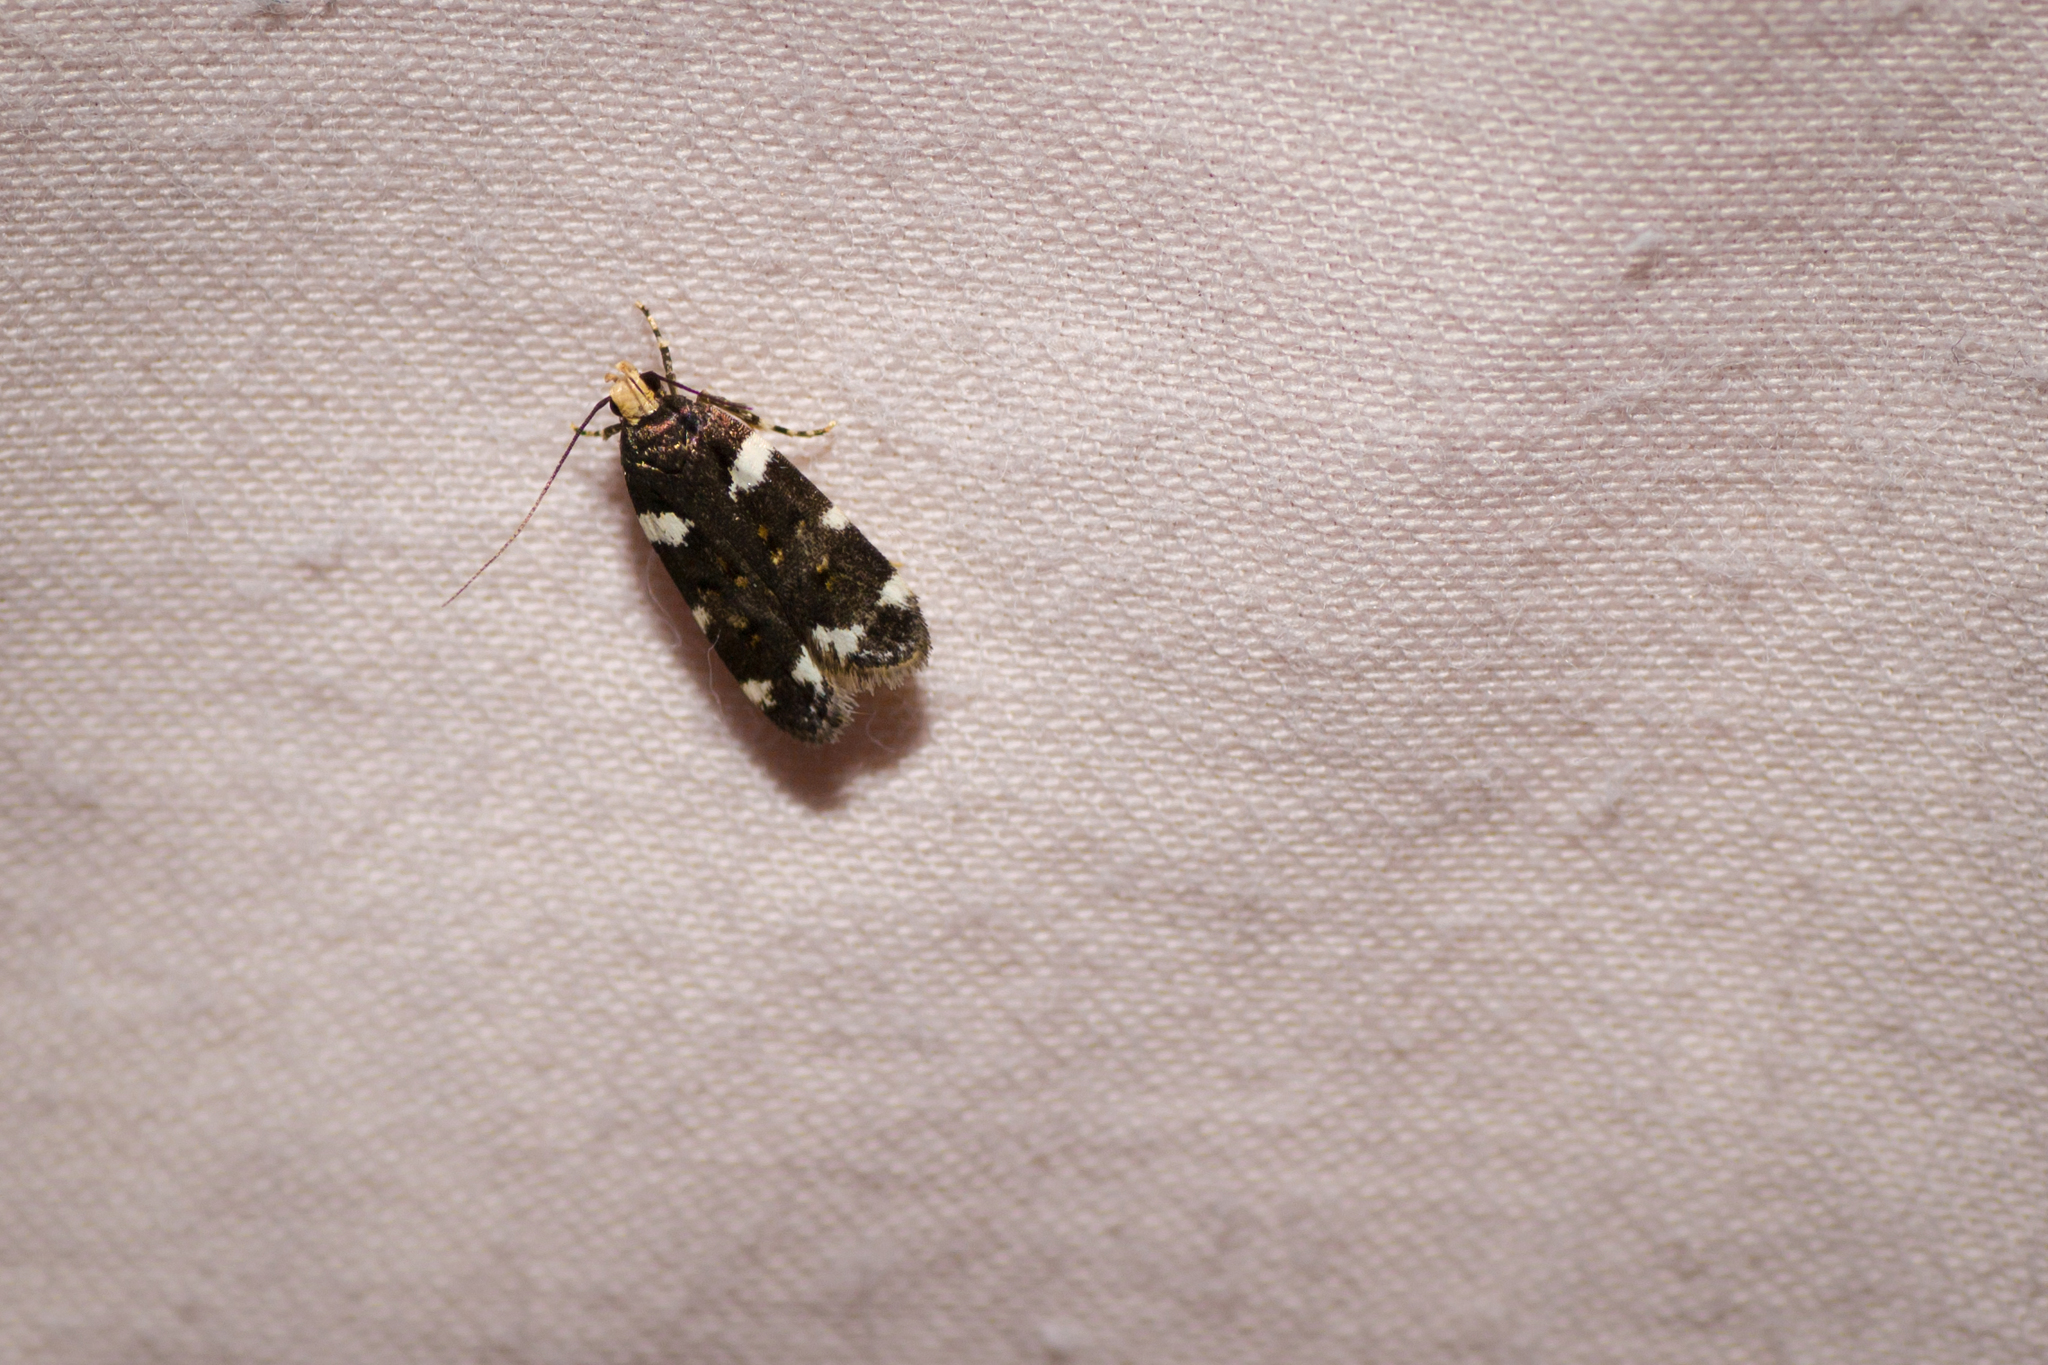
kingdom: Animalia
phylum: Arthropoda
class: Insecta
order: Lepidoptera
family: Gelechiidae
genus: Fascista
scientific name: Fascista cercerisella
